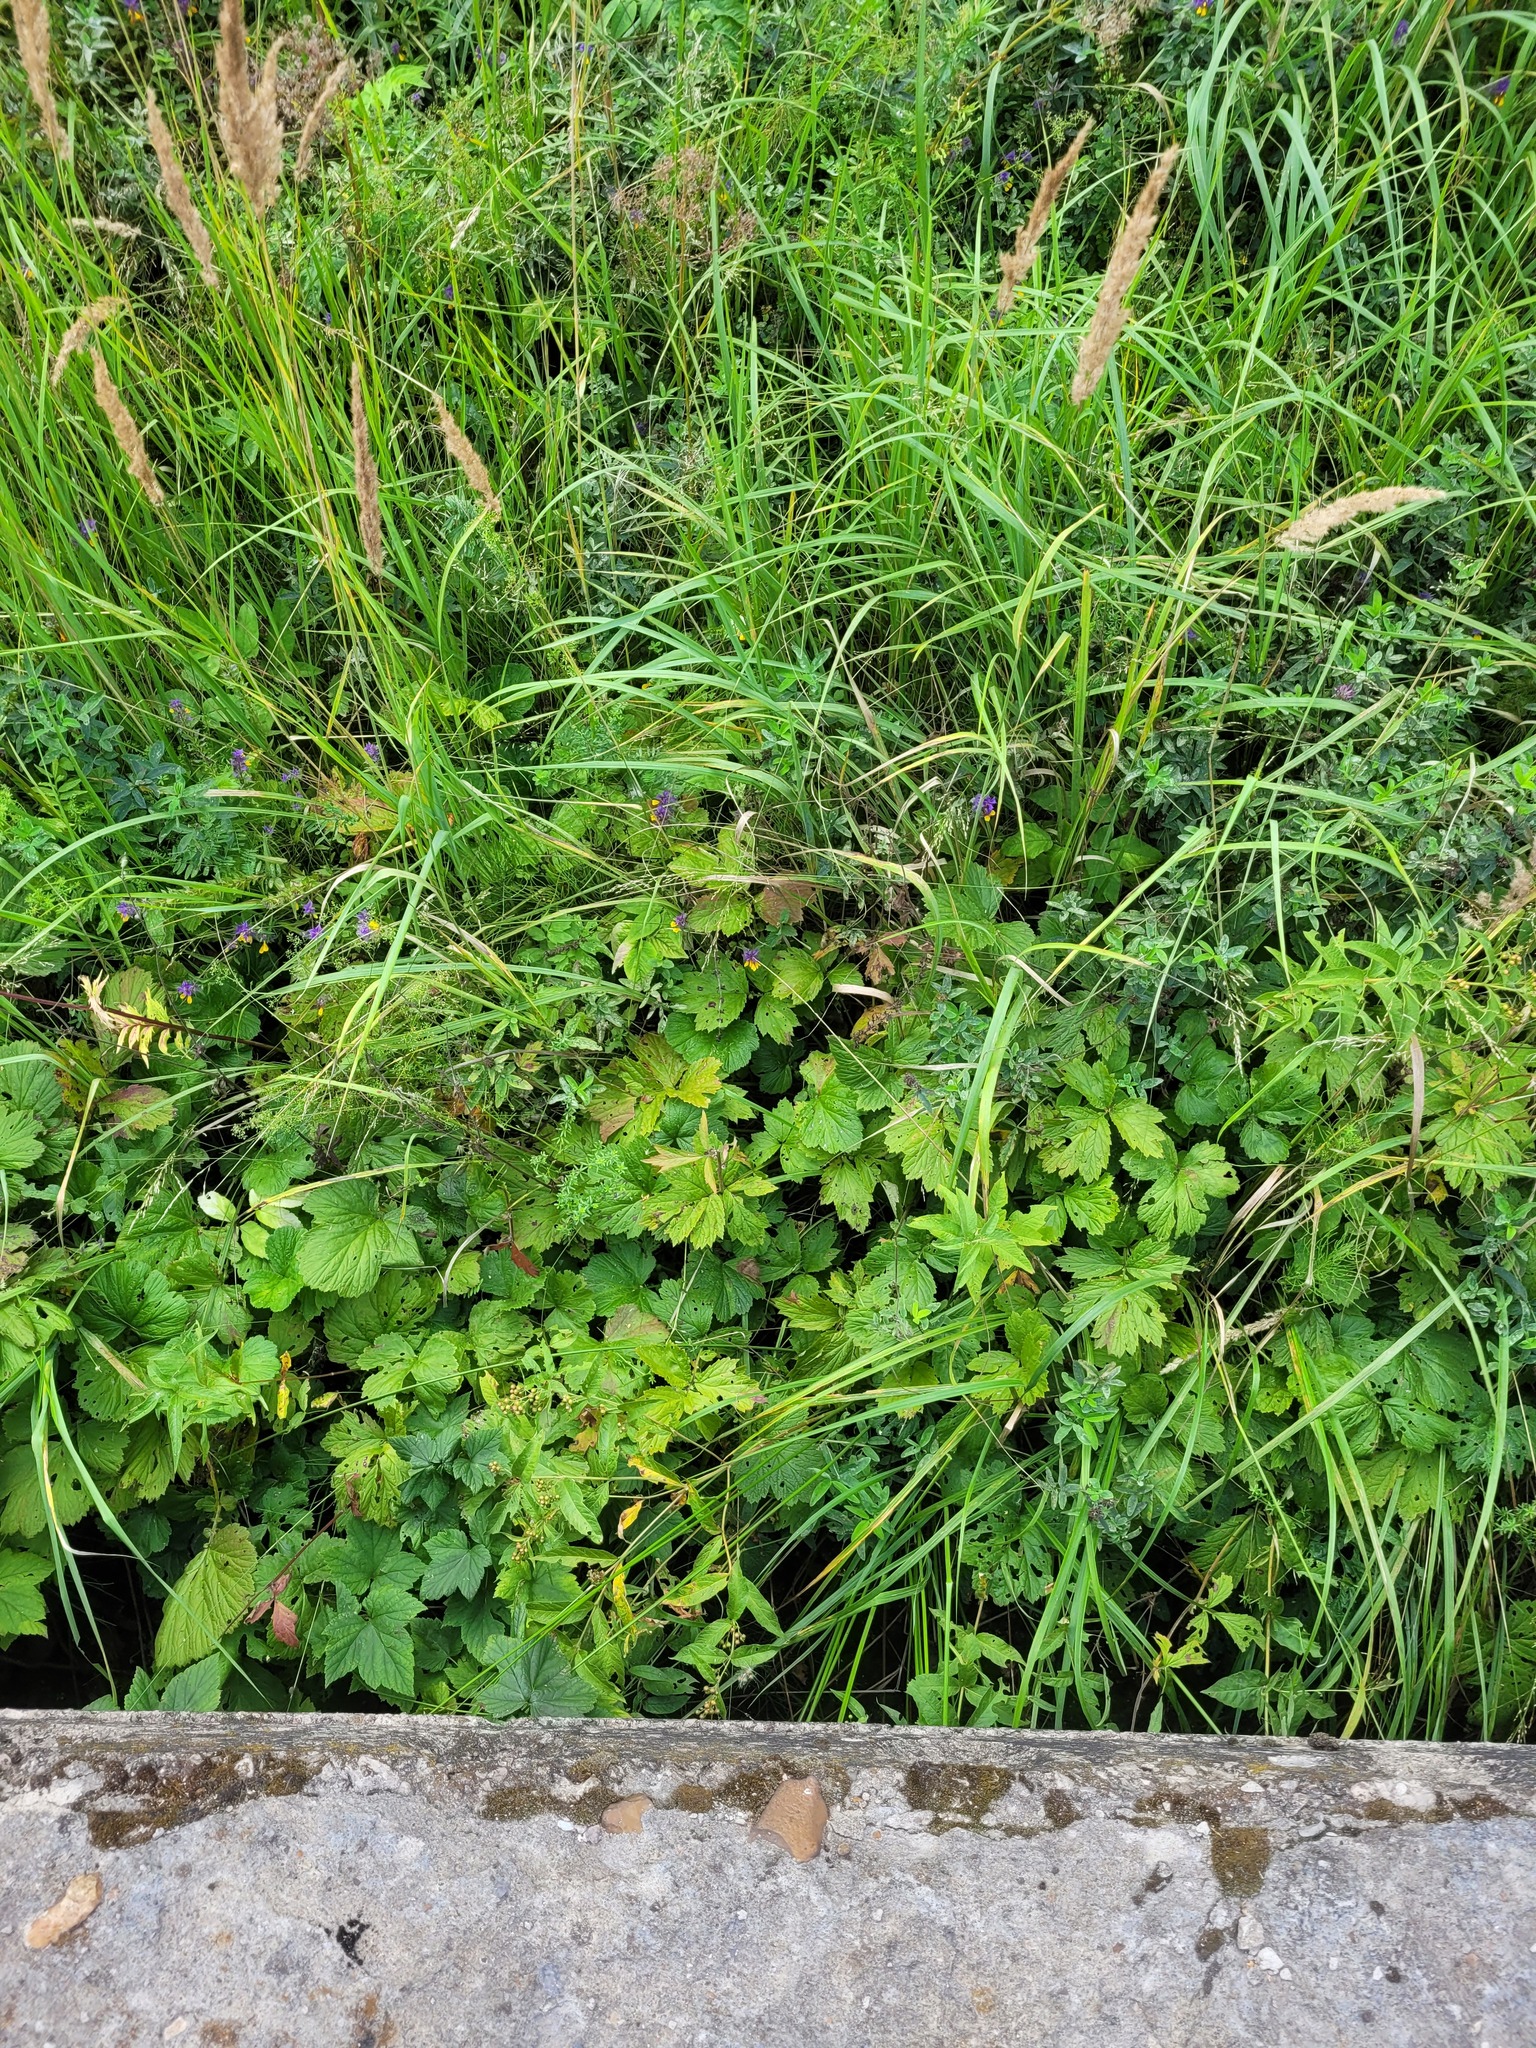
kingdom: Plantae
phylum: Tracheophyta
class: Magnoliopsida
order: Rosales
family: Rosaceae
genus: Geum
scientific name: Geum urbanum
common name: Wood avens
